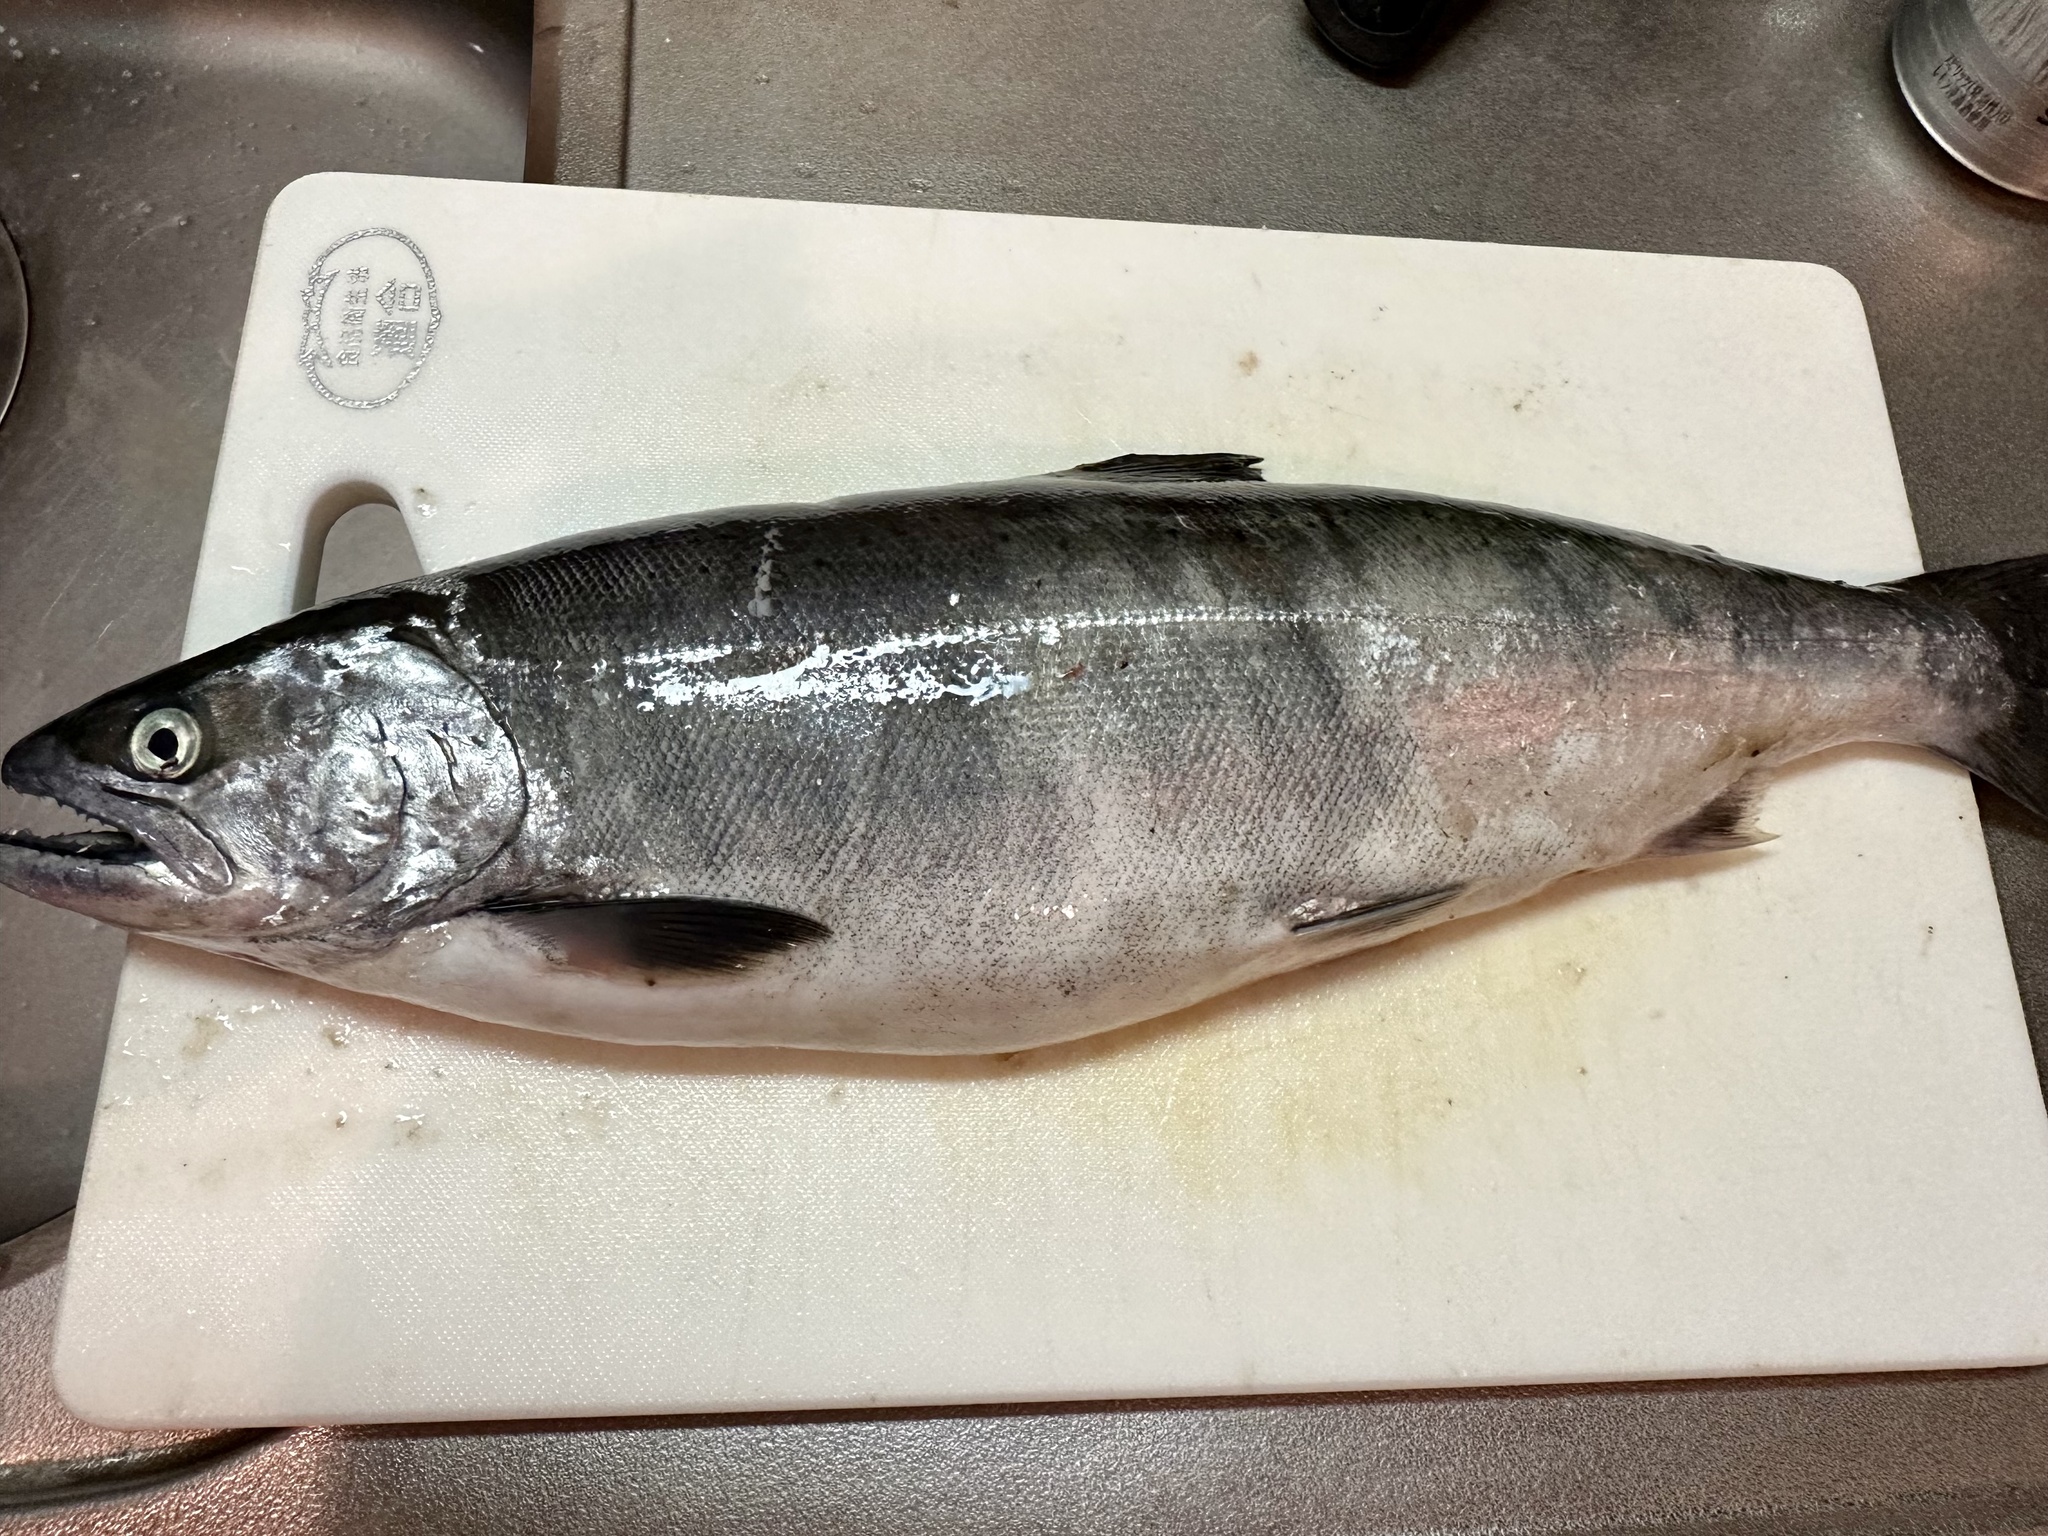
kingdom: Animalia
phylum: Chordata
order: Salmoniformes
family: Salmonidae
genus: Oncorhynchus
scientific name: Oncorhynchus masou
